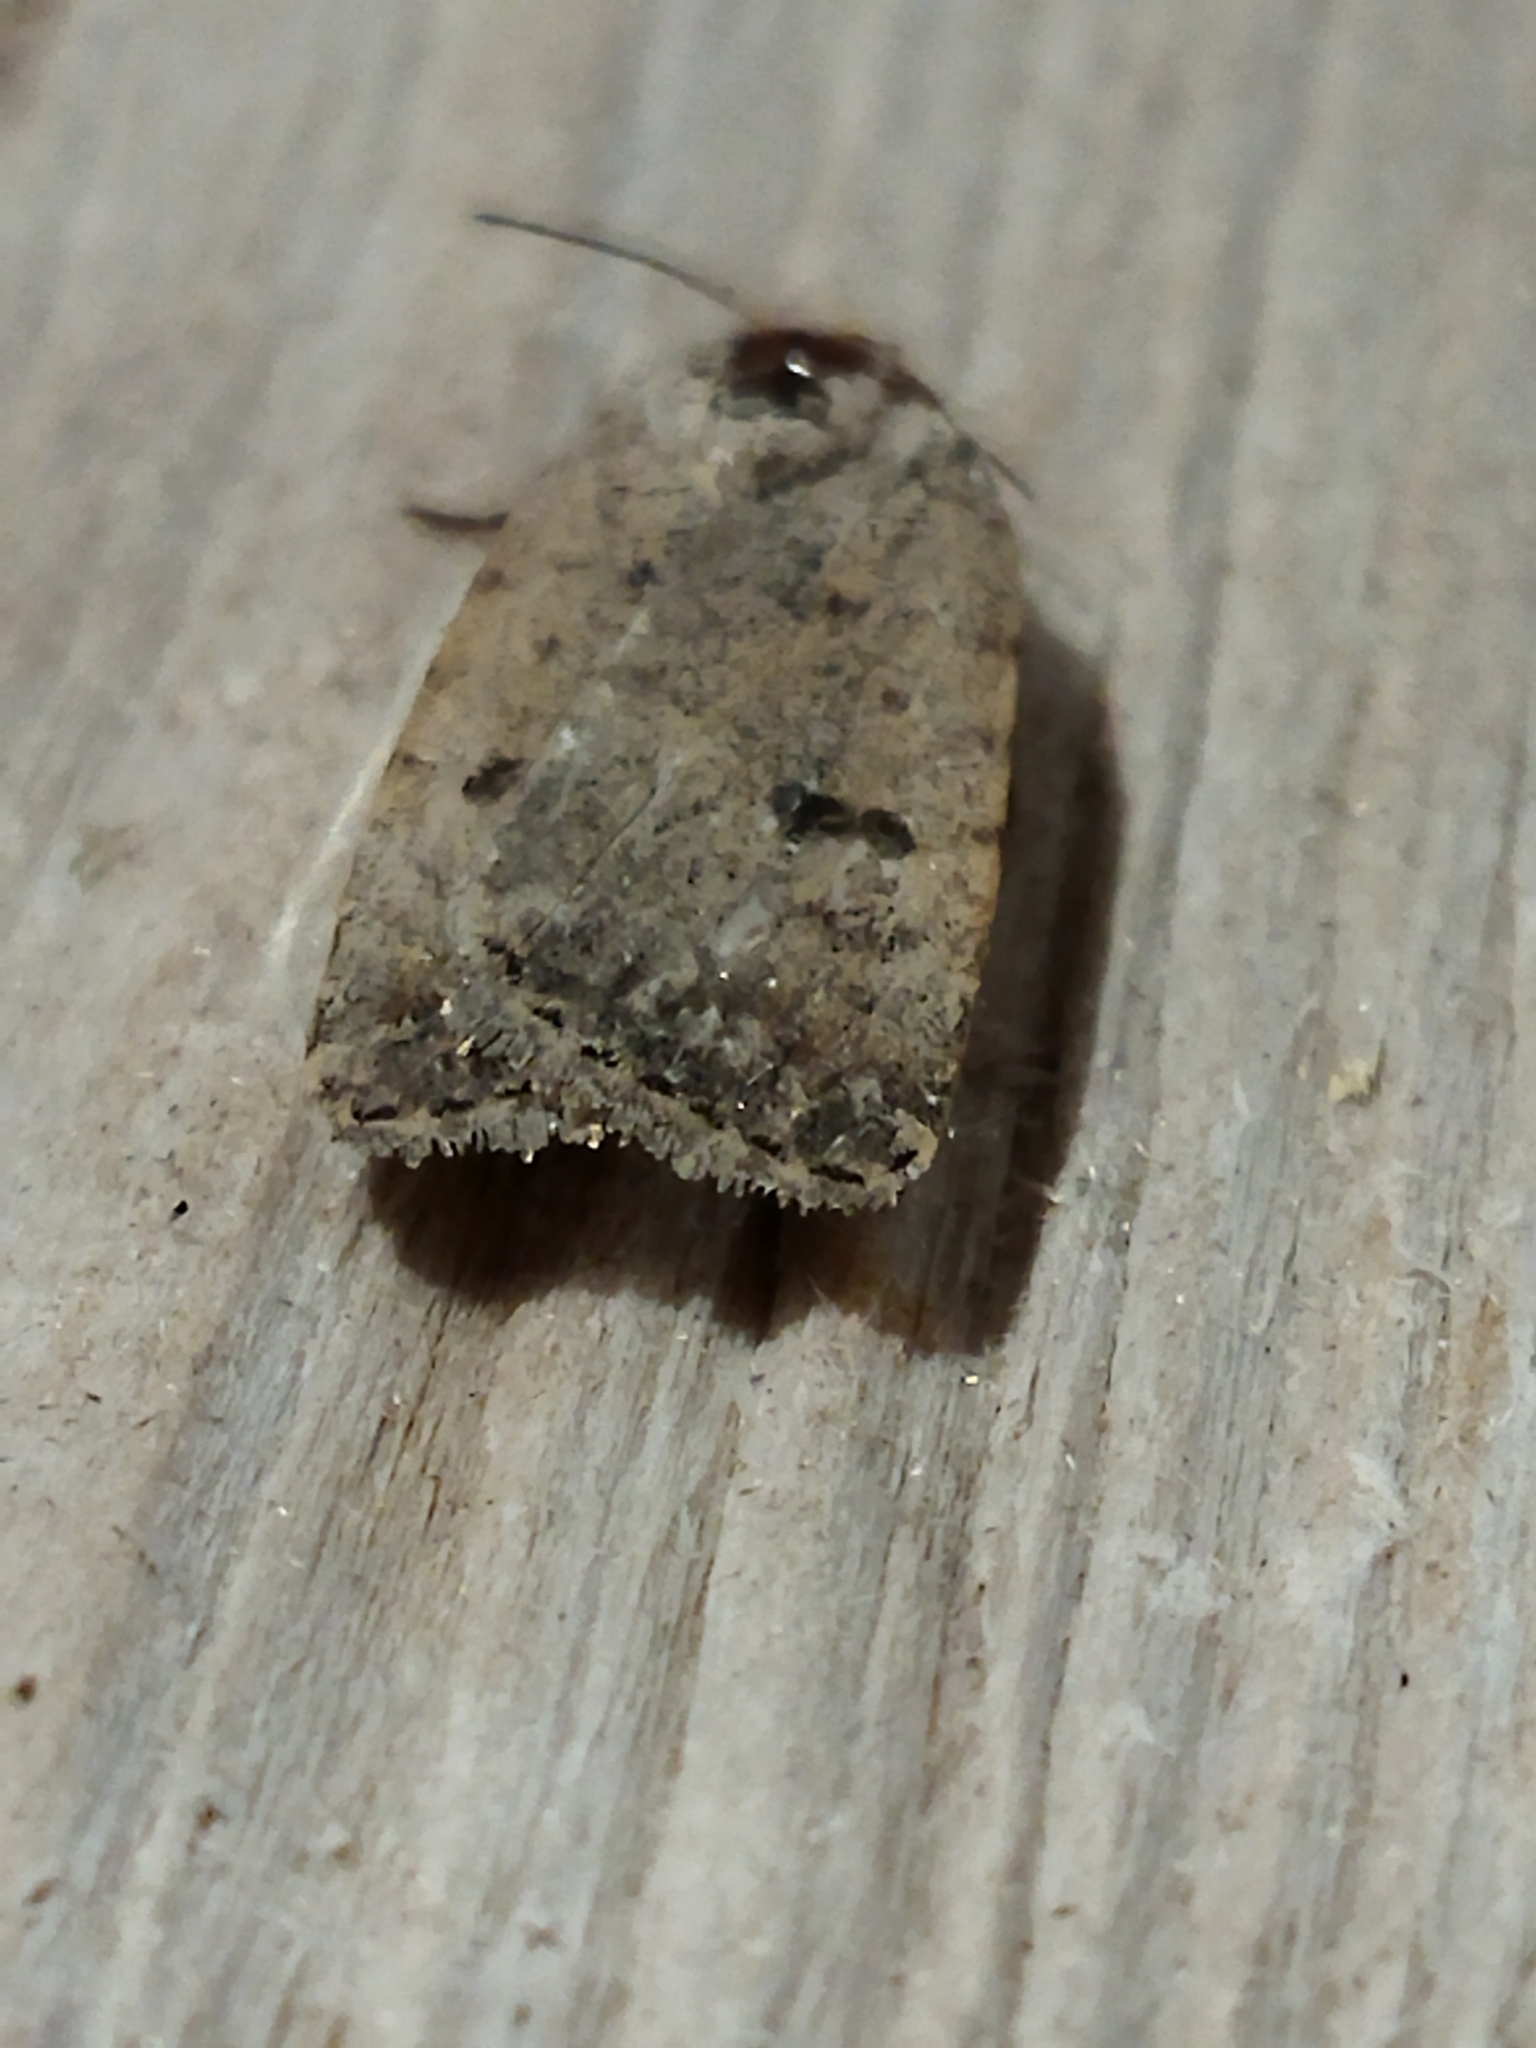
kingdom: Animalia
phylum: Arthropoda
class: Insecta
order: Lepidoptera
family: Noctuidae
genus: Caradrina
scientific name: Caradrina clavipalpis
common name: Pale mottled willow
